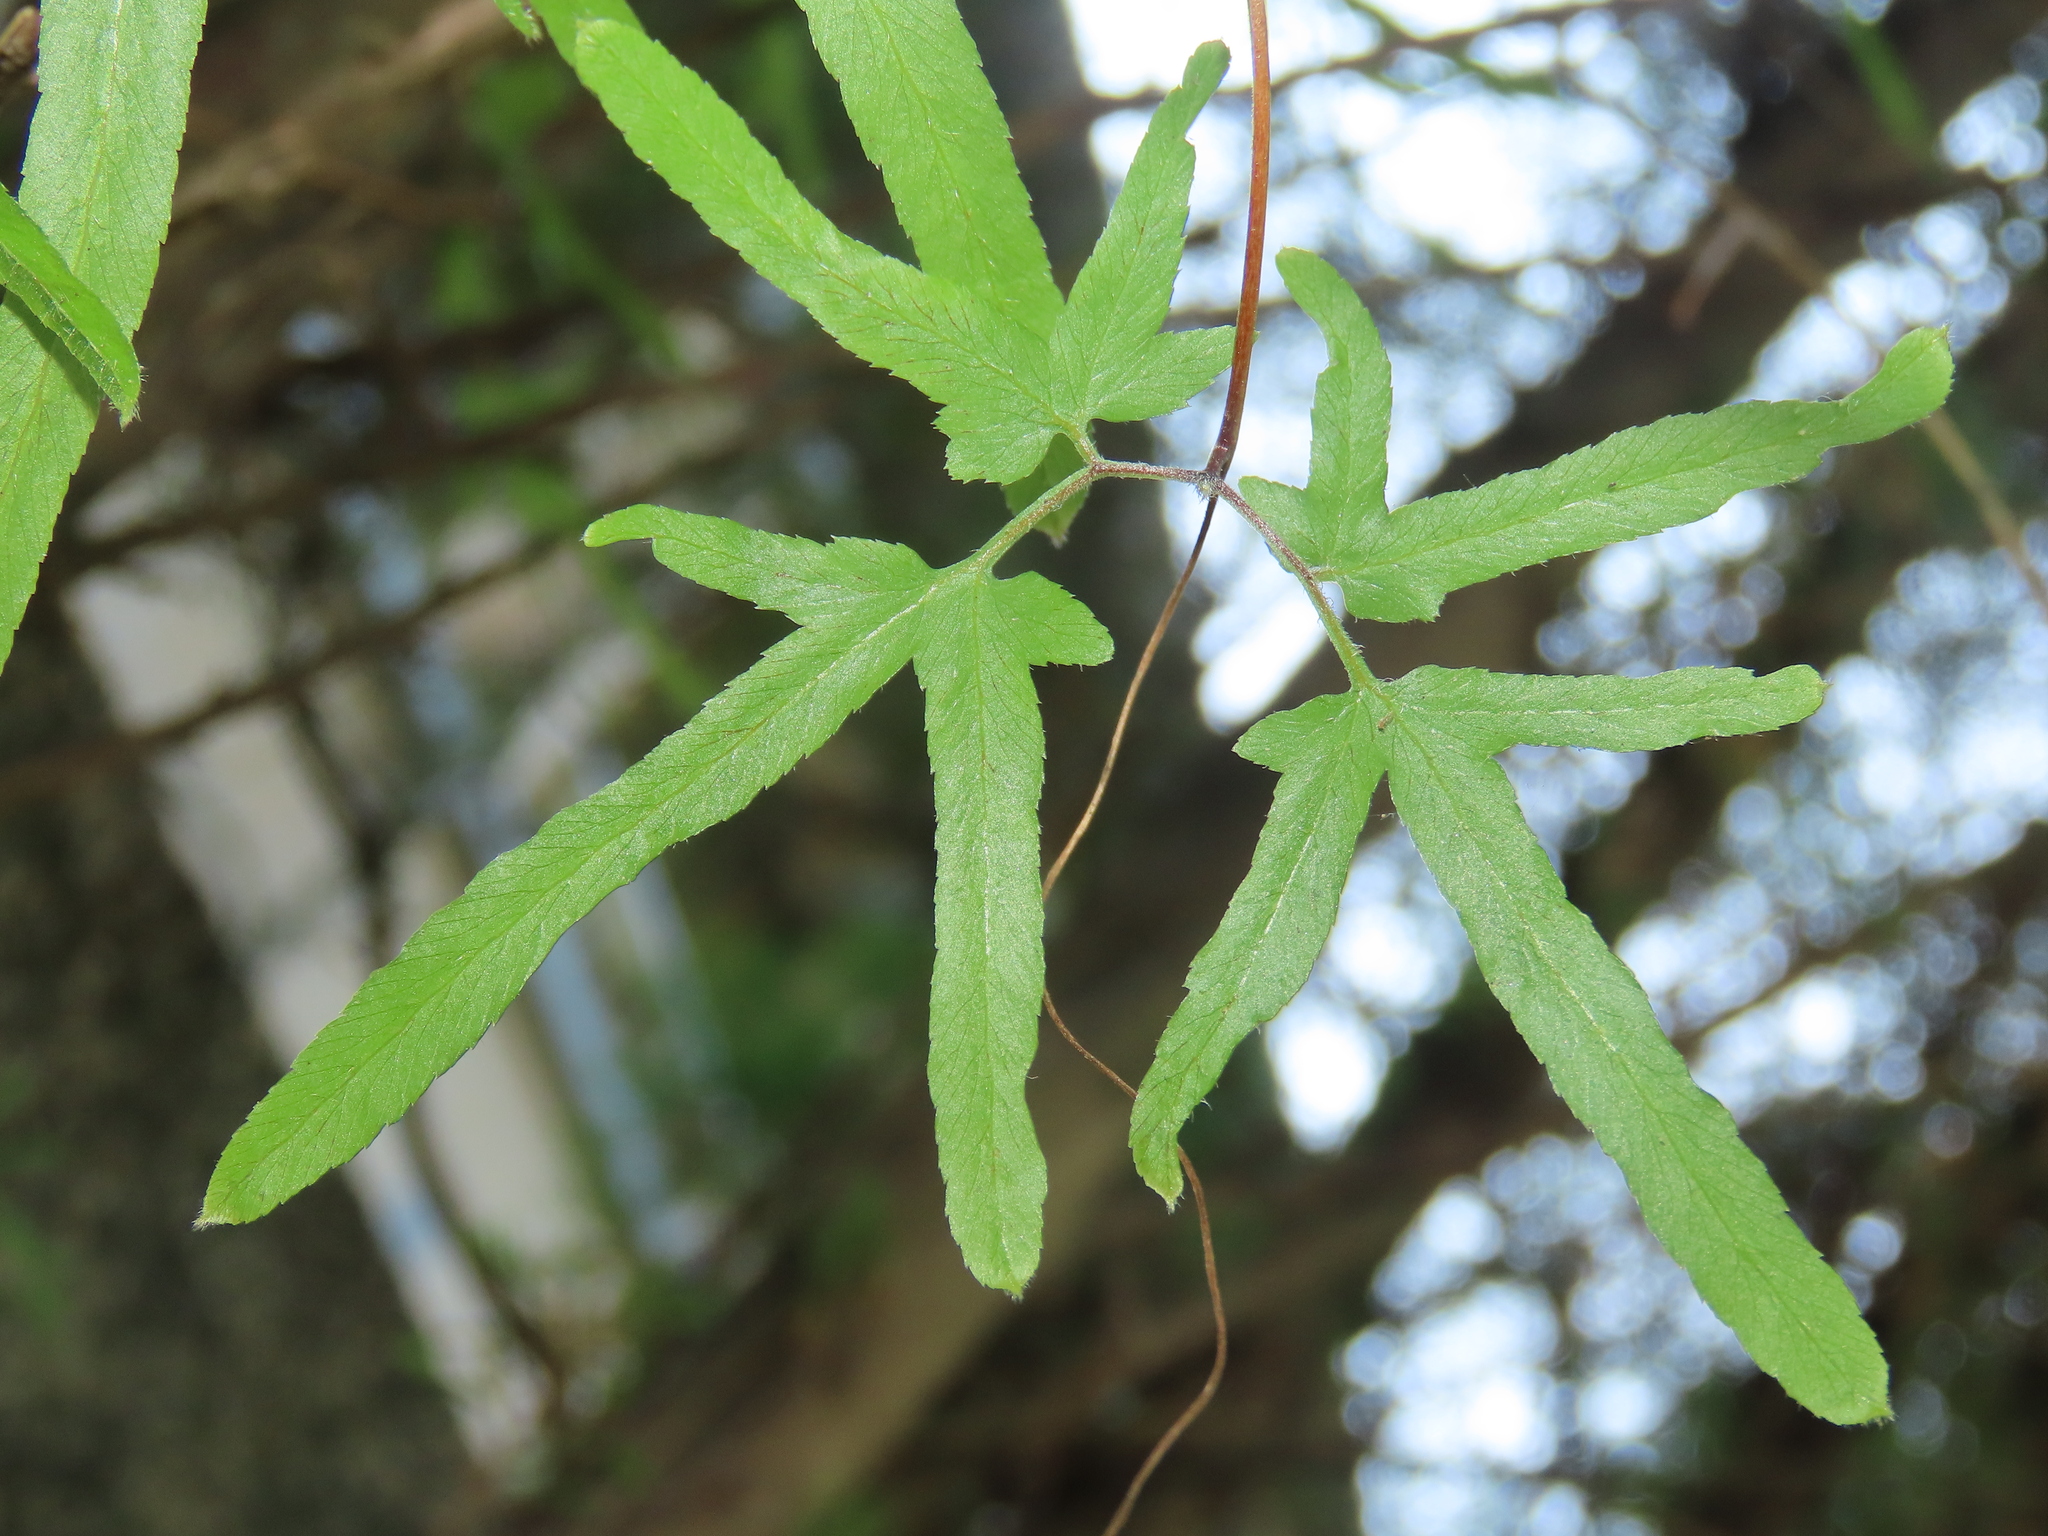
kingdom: Plantae
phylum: Tracheophyta
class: Polypodiopsida
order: Schizaeales
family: Lygodiaceae
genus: Lygodium
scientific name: Lygodium japonicum
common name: Japanese climbing fern
